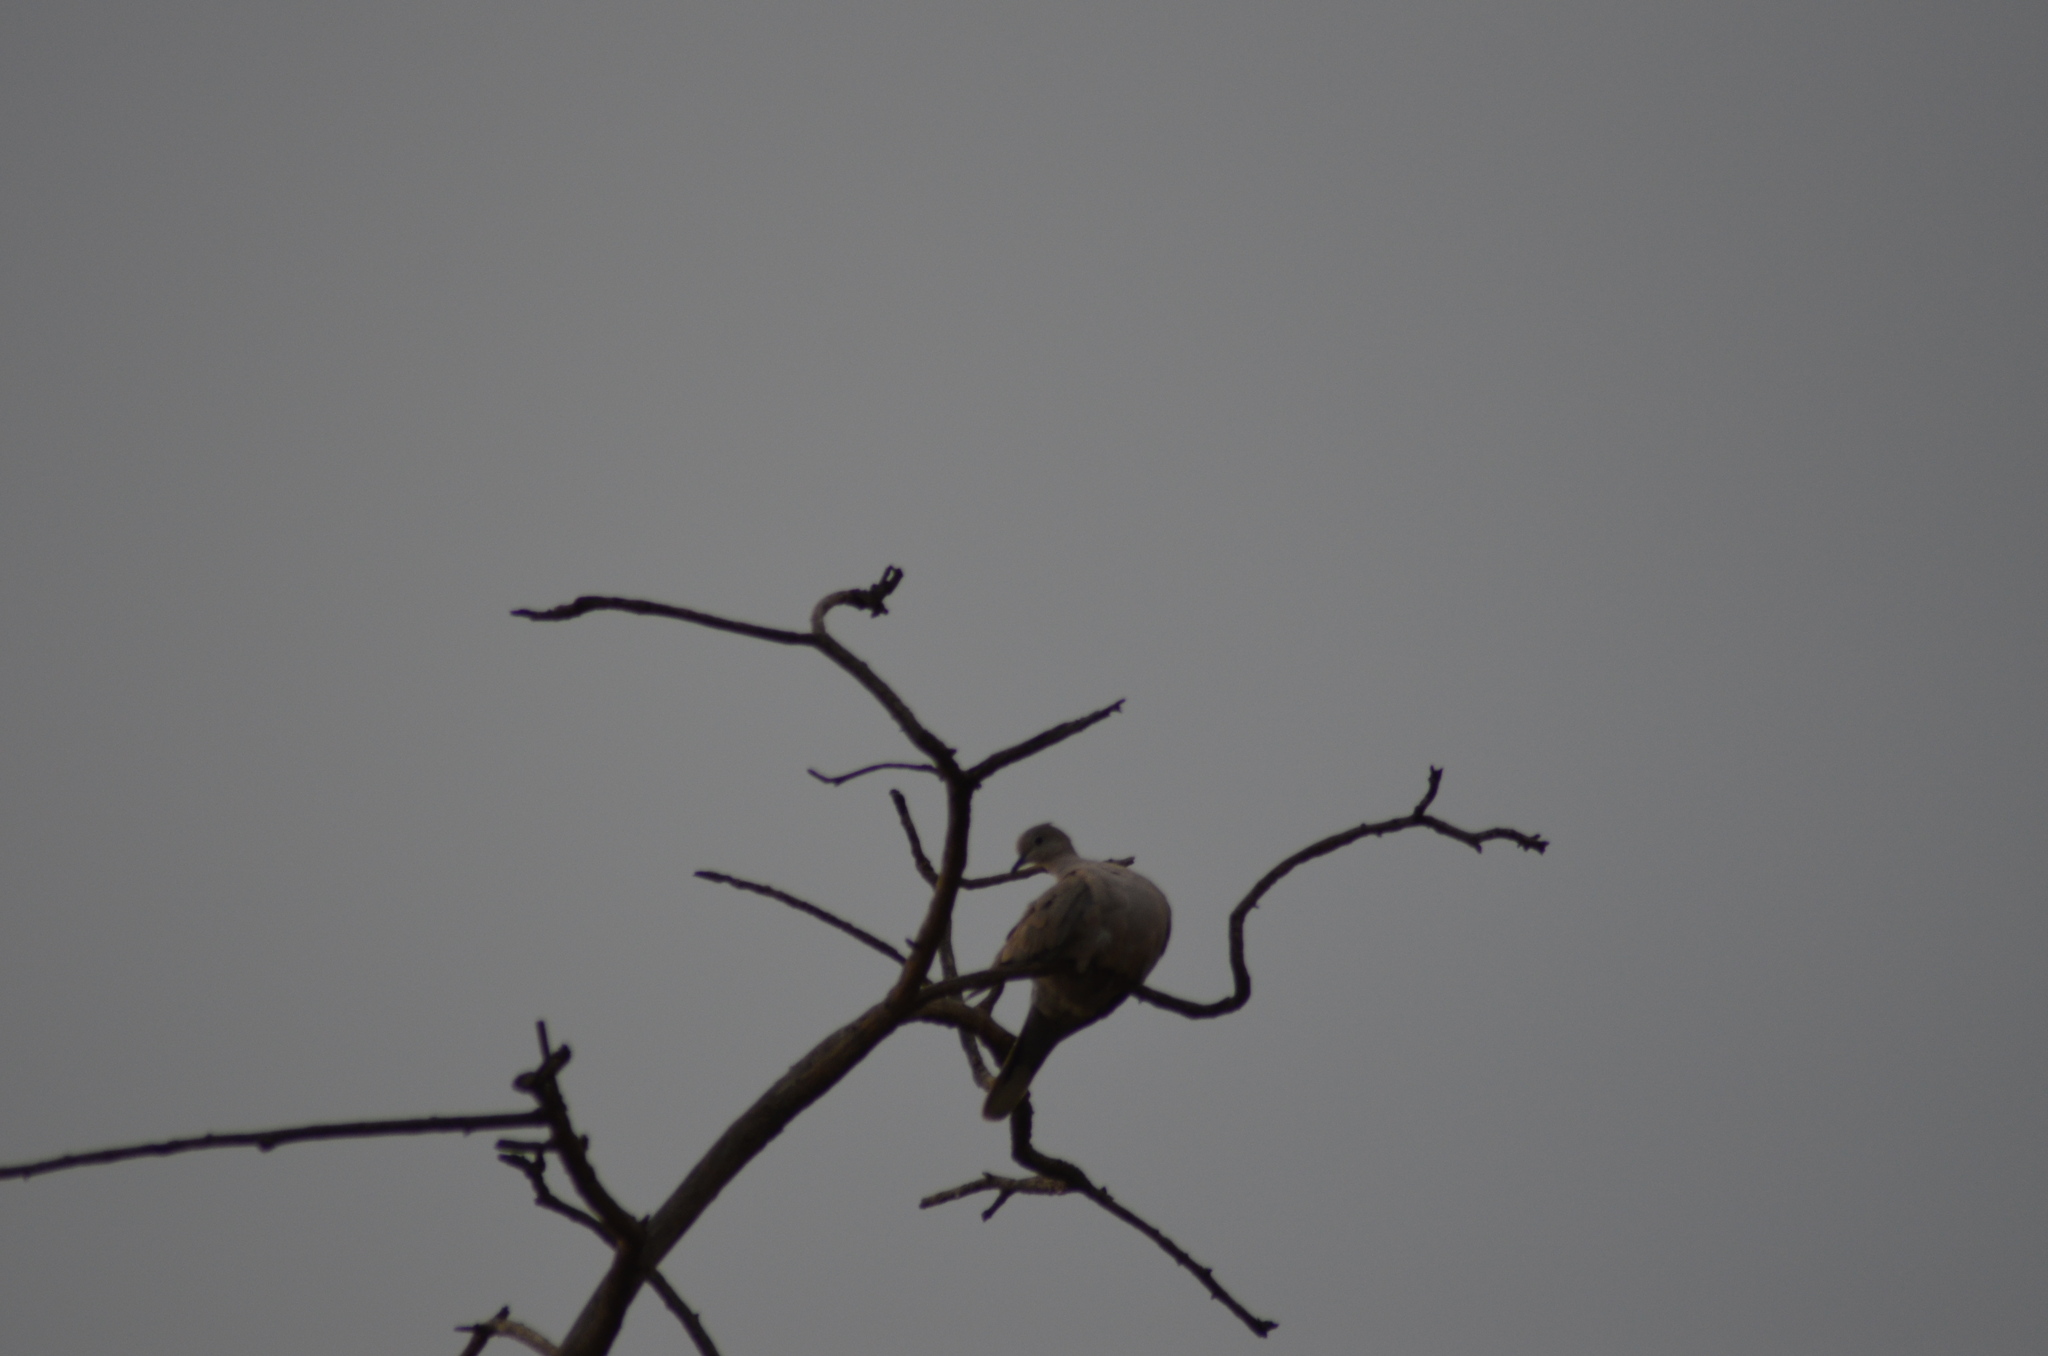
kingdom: Animalia
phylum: Chordata
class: Aves
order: Columbiformes
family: Columbidae
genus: Streptopelia
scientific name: Streptopelia decaocto
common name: Eurasian collared dove
